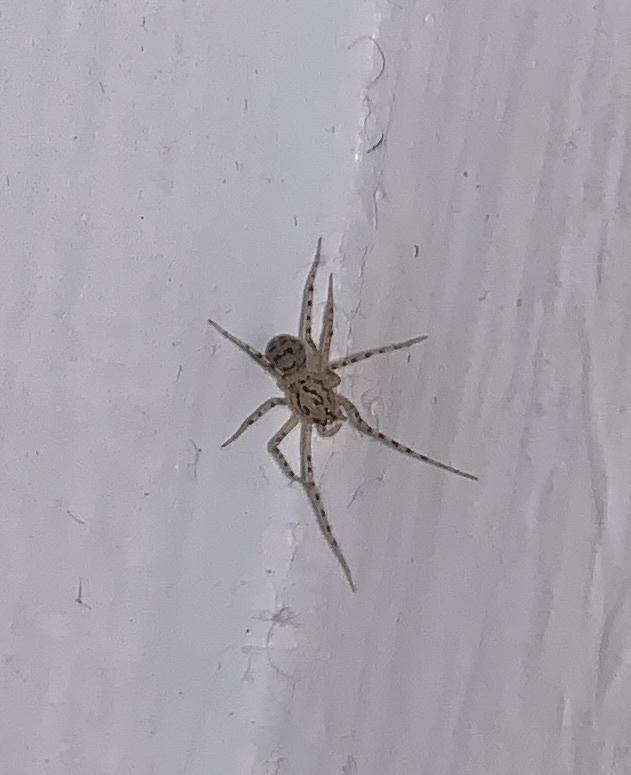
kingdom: Animalia
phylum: Arthropoda
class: Arachnida
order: Araneae
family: Scytodidae
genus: Scytodes
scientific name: Scytodes thoracica
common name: Spitting spider
